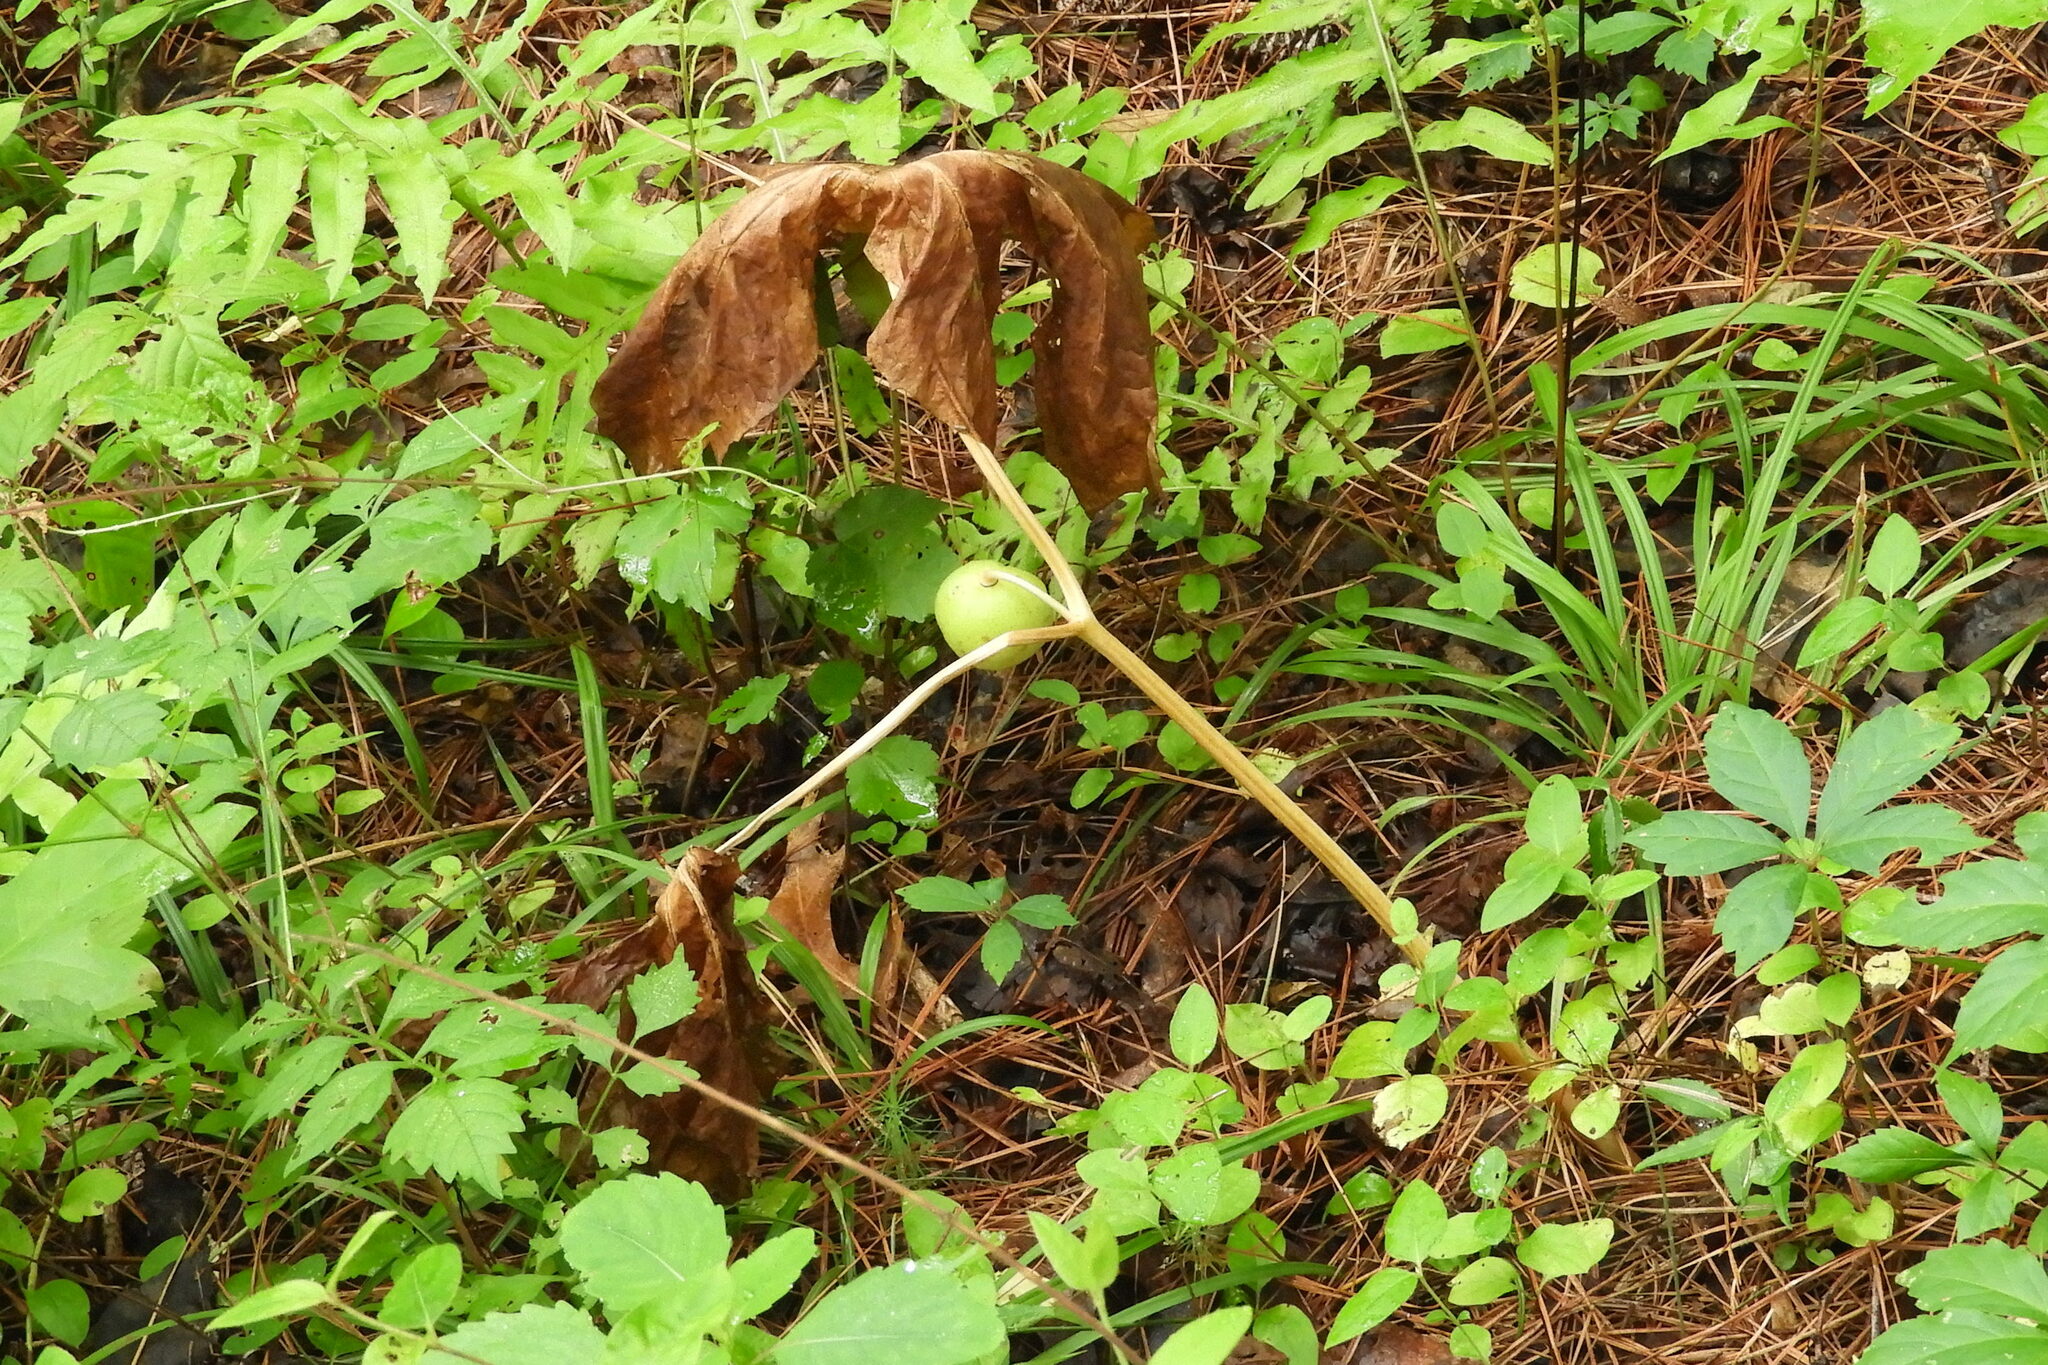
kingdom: Plantae
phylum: Tracheophyta
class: Magnoliopsida
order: Ranunculales
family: Berberidaceae
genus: Podophyllum
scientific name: Podophyllum peltatum
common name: Wild mandrake
